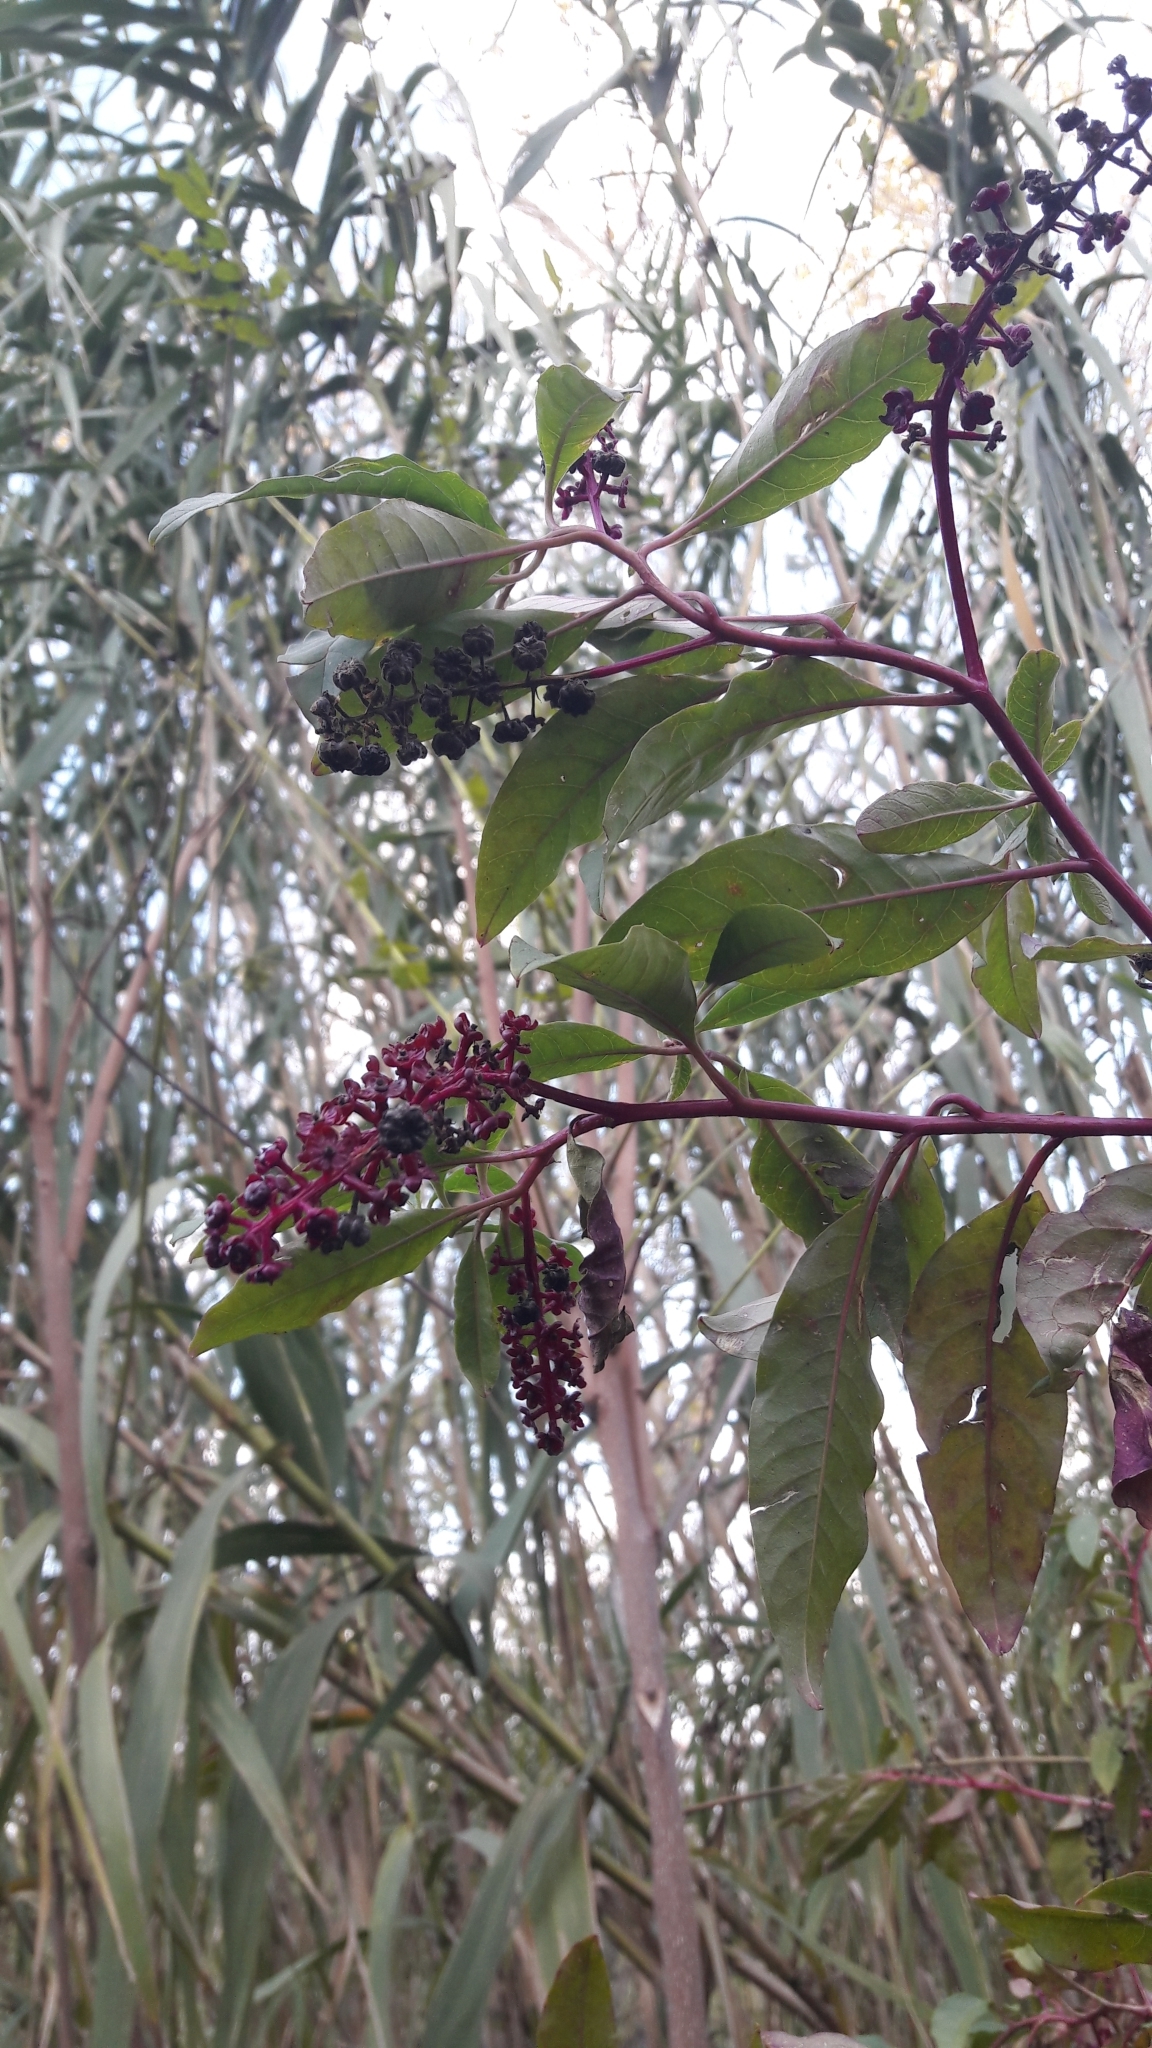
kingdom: Plantae
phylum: Tracheophyta
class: Magnoliopsida
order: Caryophyllales
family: Phytolaccaceae
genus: Phytolacca
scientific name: Phytolacca americana
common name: American pokeweed
